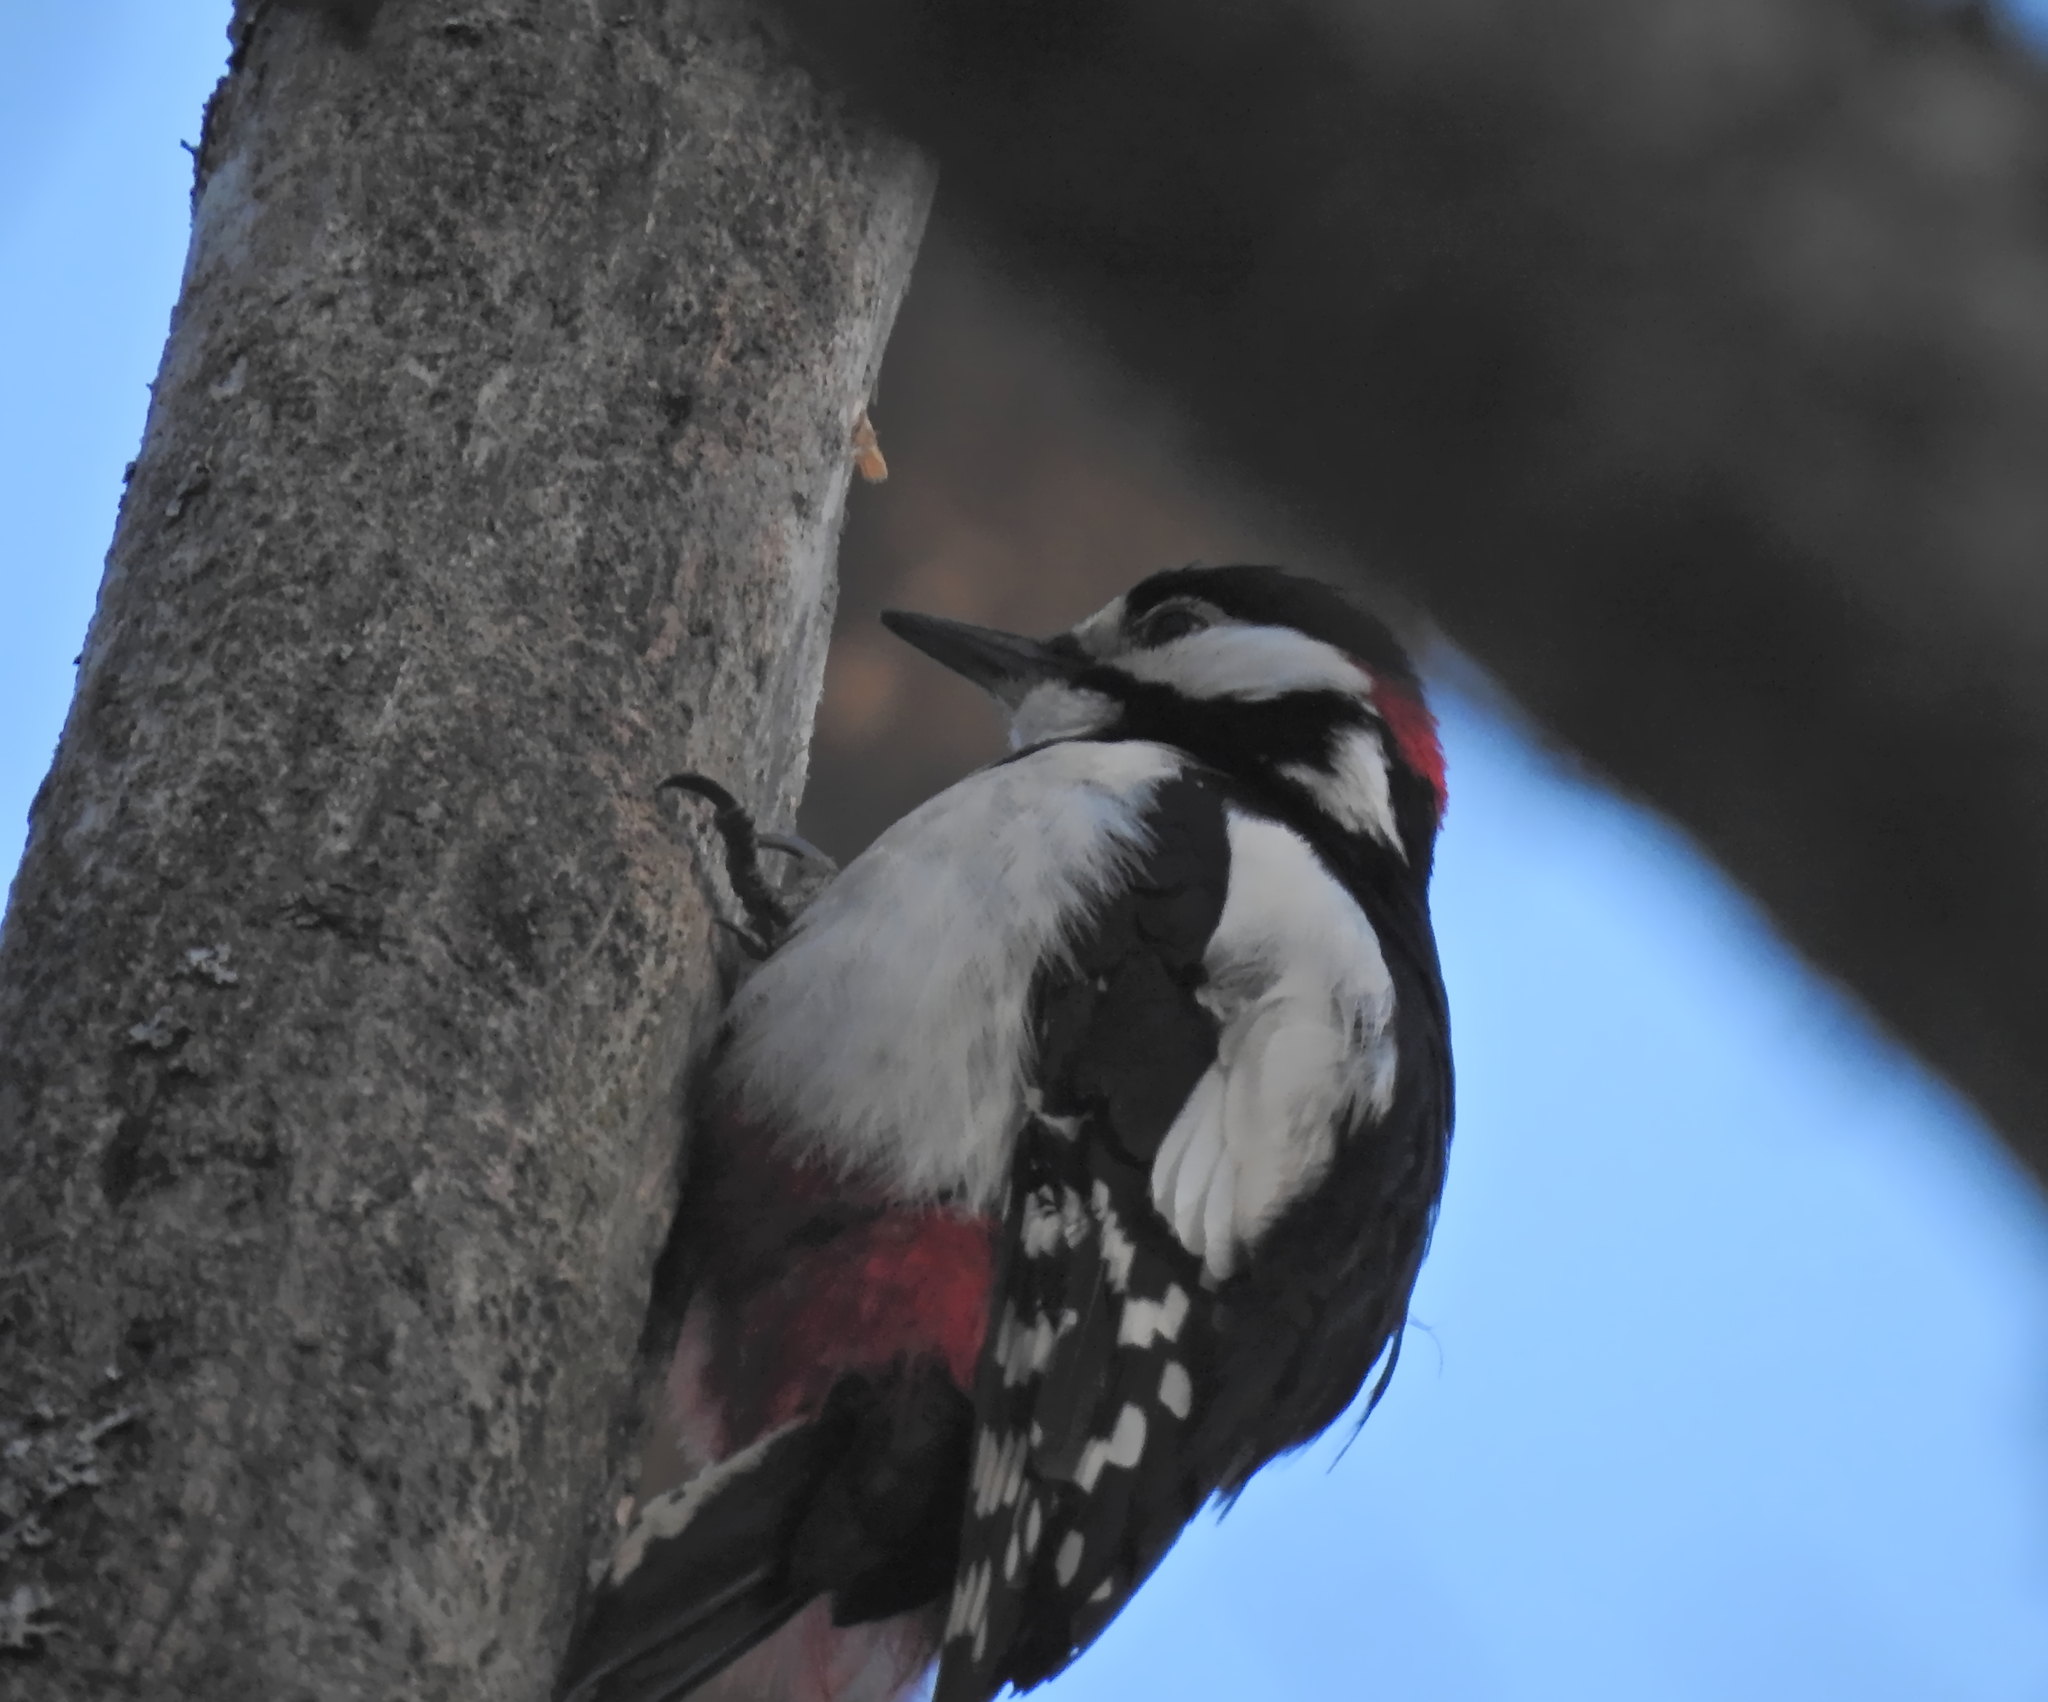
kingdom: Animalia
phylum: Chordata
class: Aves
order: Piciformes
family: Picidae
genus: Dendrocopos
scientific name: Dendrocopos major
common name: Great spotted woodpecker
